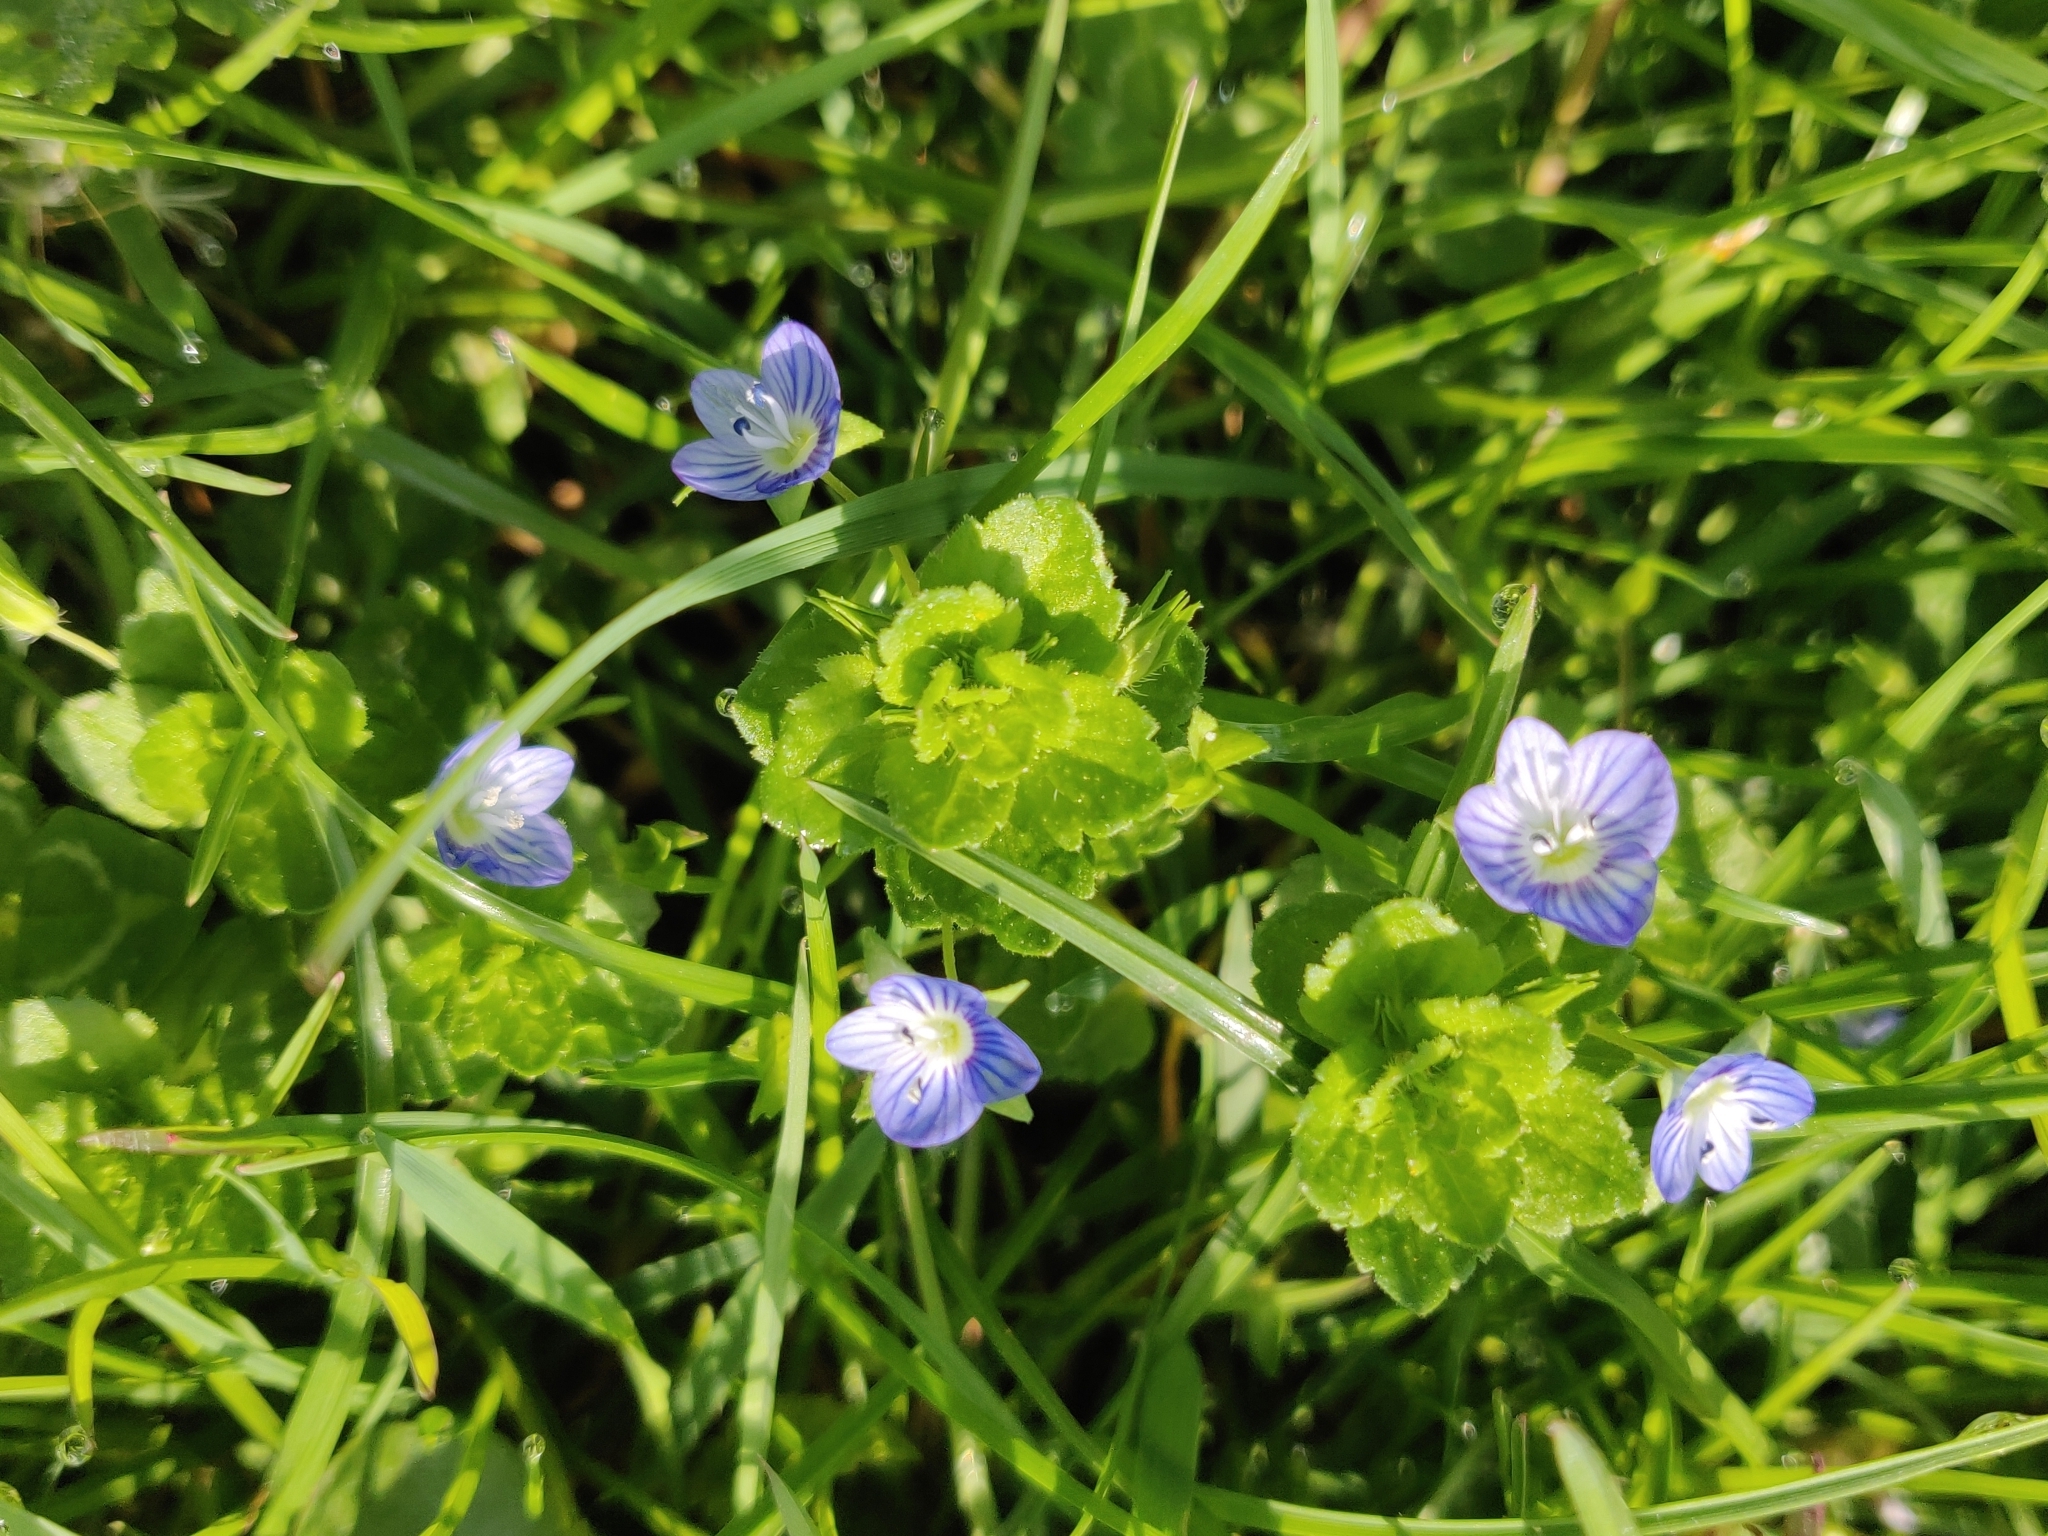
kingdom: Plantae
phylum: Tracheophyta
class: Magnoliopsida
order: Lamiales
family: Plantaginaceae
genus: Veronica
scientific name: Veronica persica
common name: Common field-speedwell
